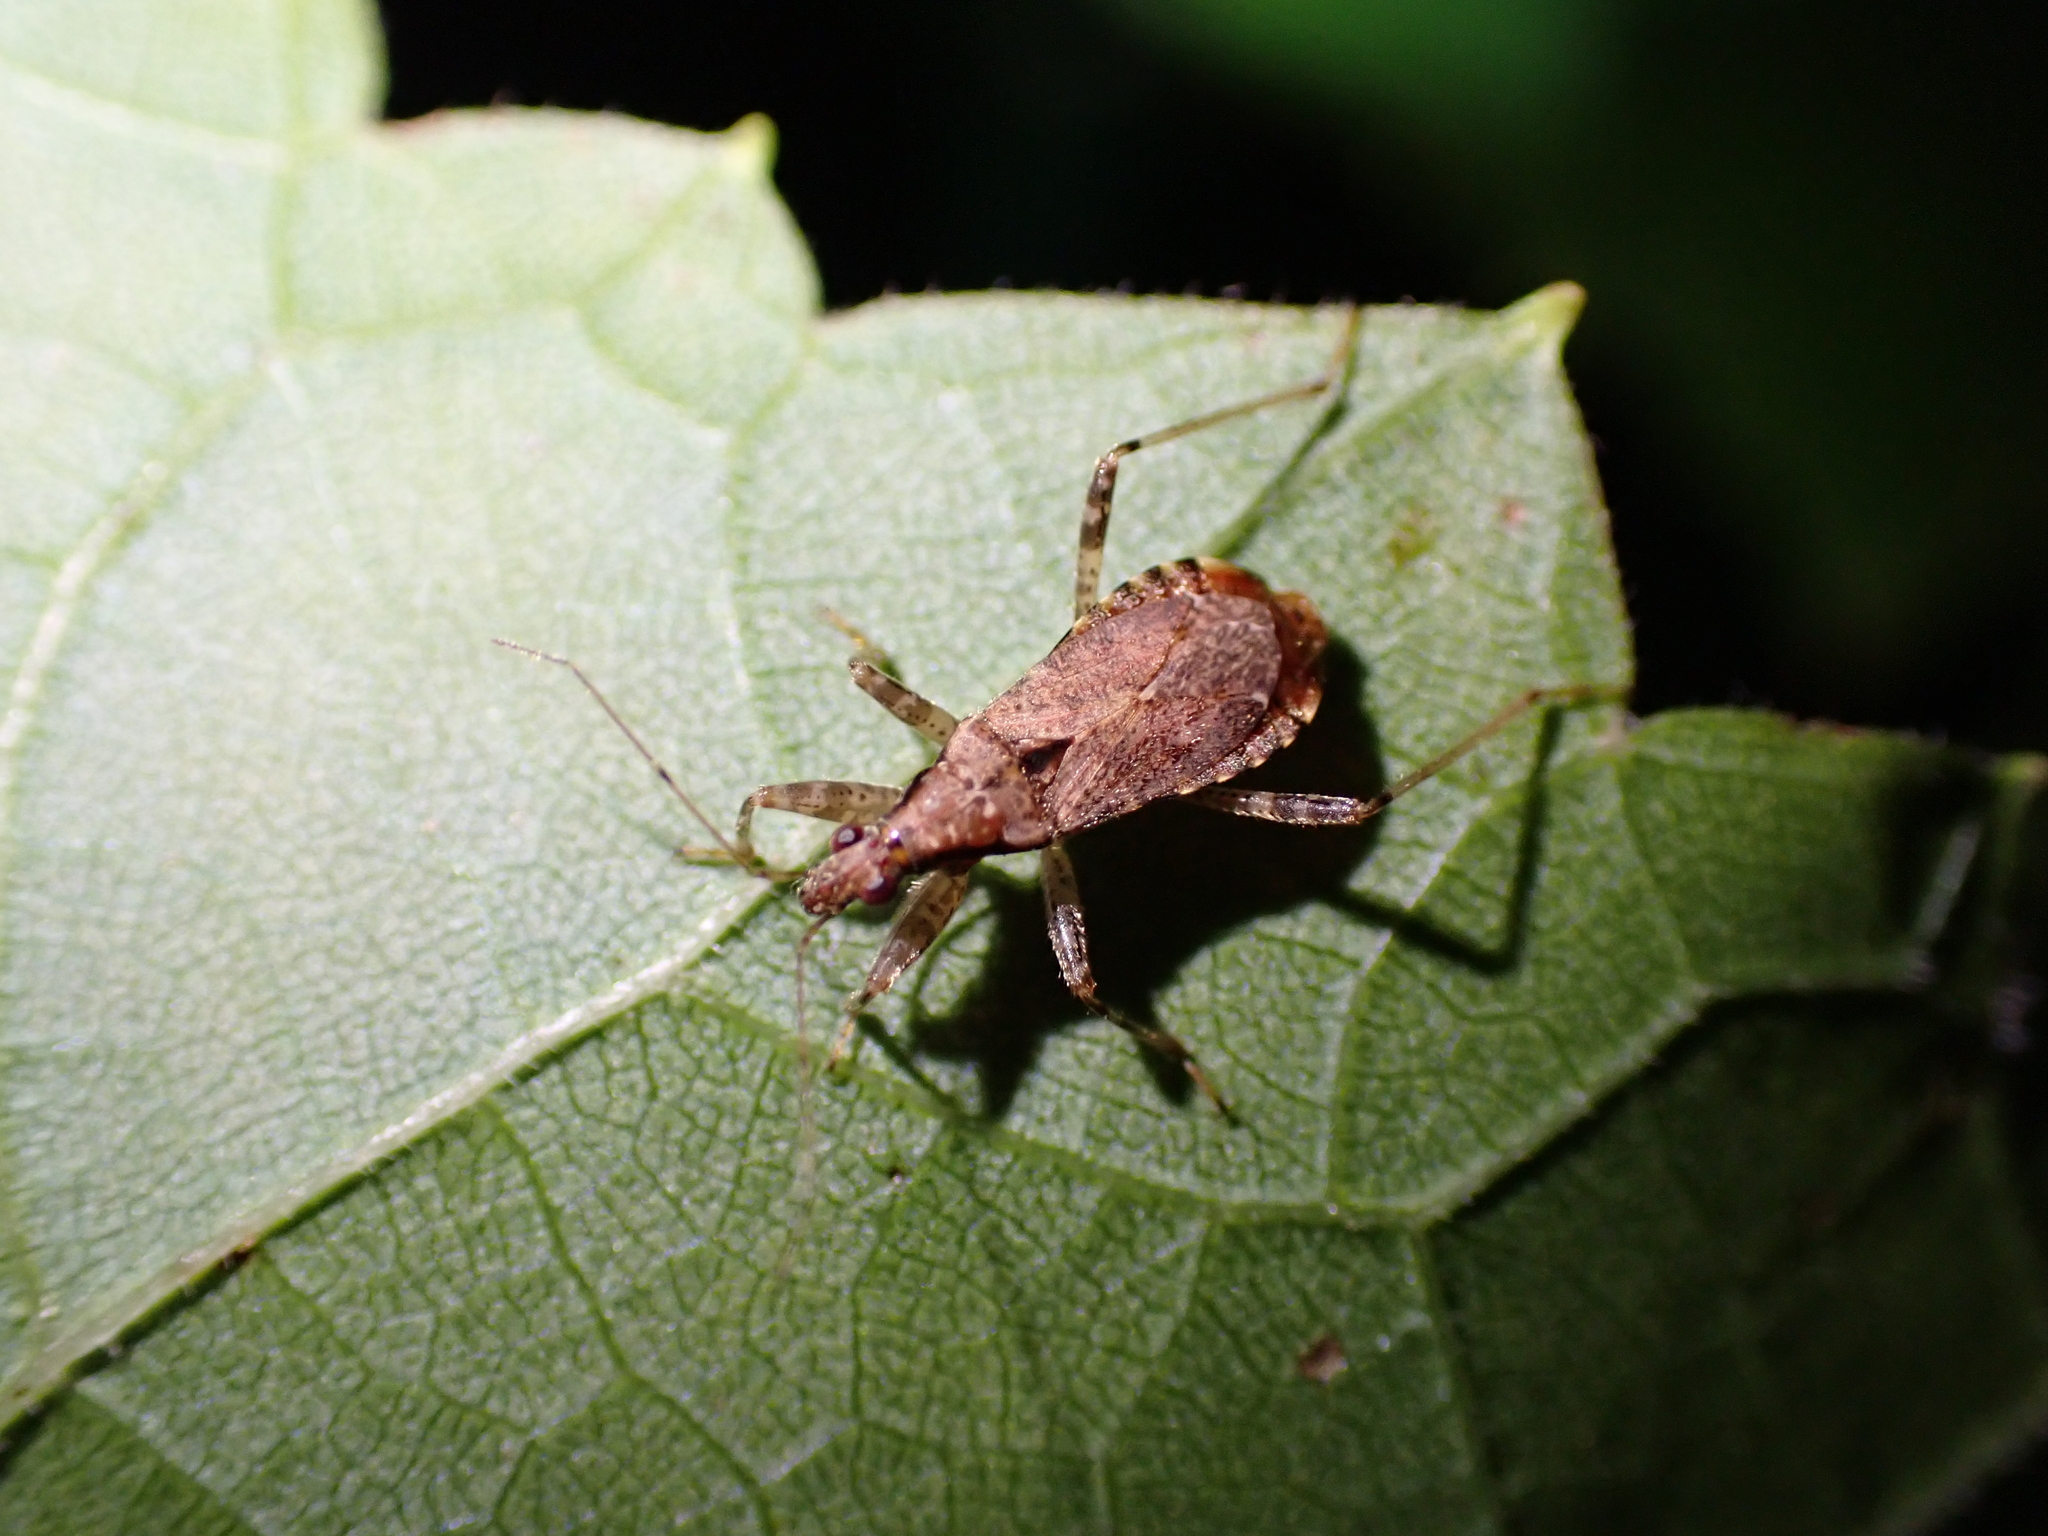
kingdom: Animalia
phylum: Arthropoda
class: Insecta
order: Hemiptera
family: Nabidae
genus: Himacerus
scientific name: Himacerus mirmicoides
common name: Ant damsel bug
